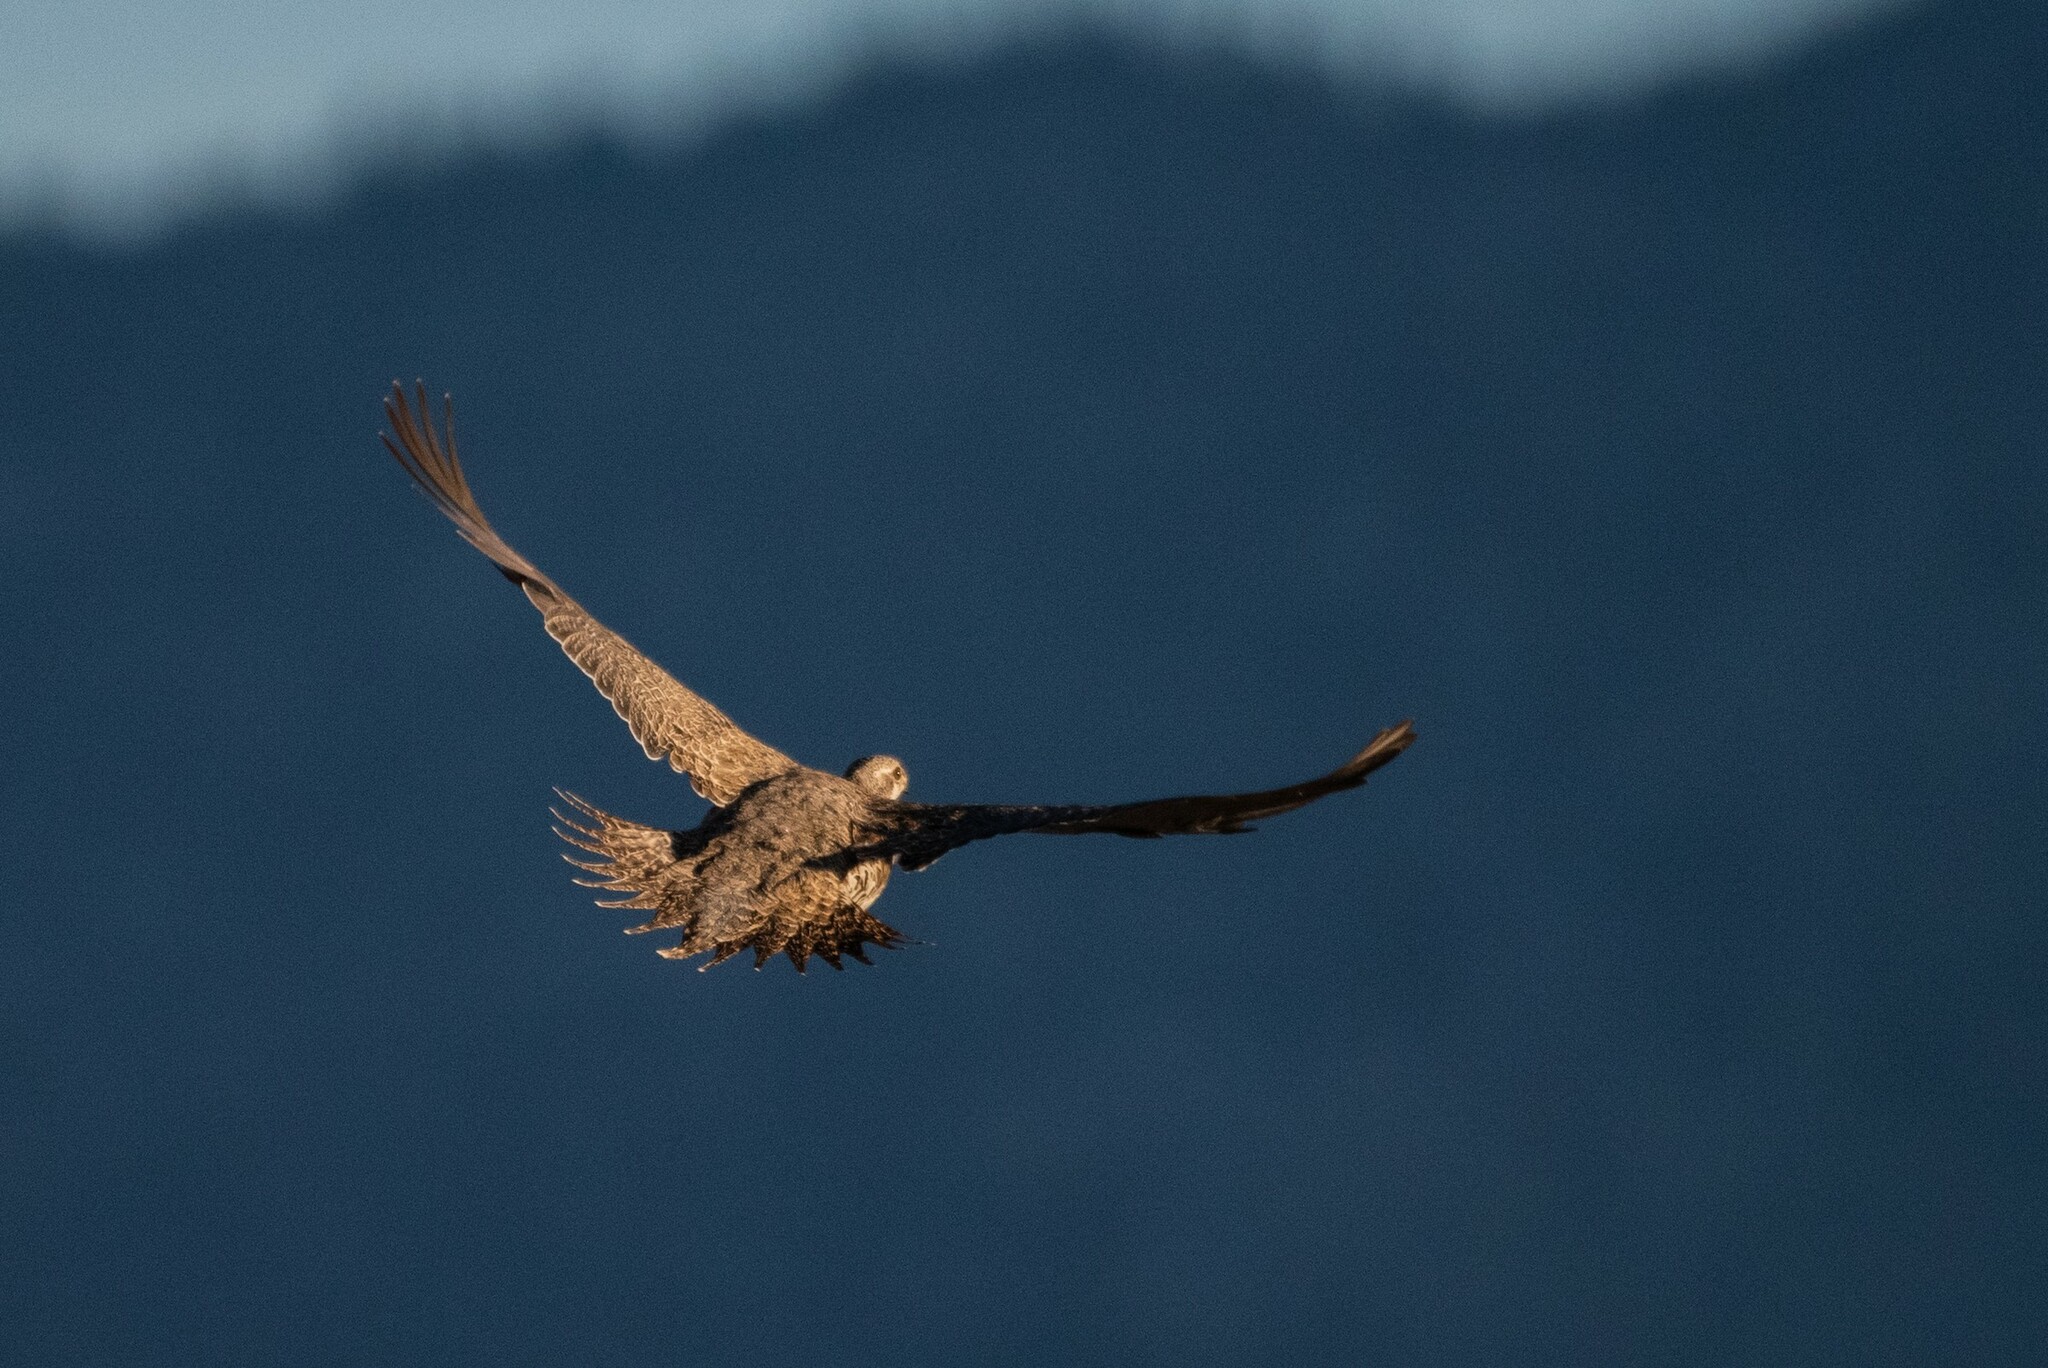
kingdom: Animalia
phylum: Chordata
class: Aves
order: Galliformes
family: Phasianidae
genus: Centrocercus
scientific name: Centrocercus urophasianus
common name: Sage grouse
